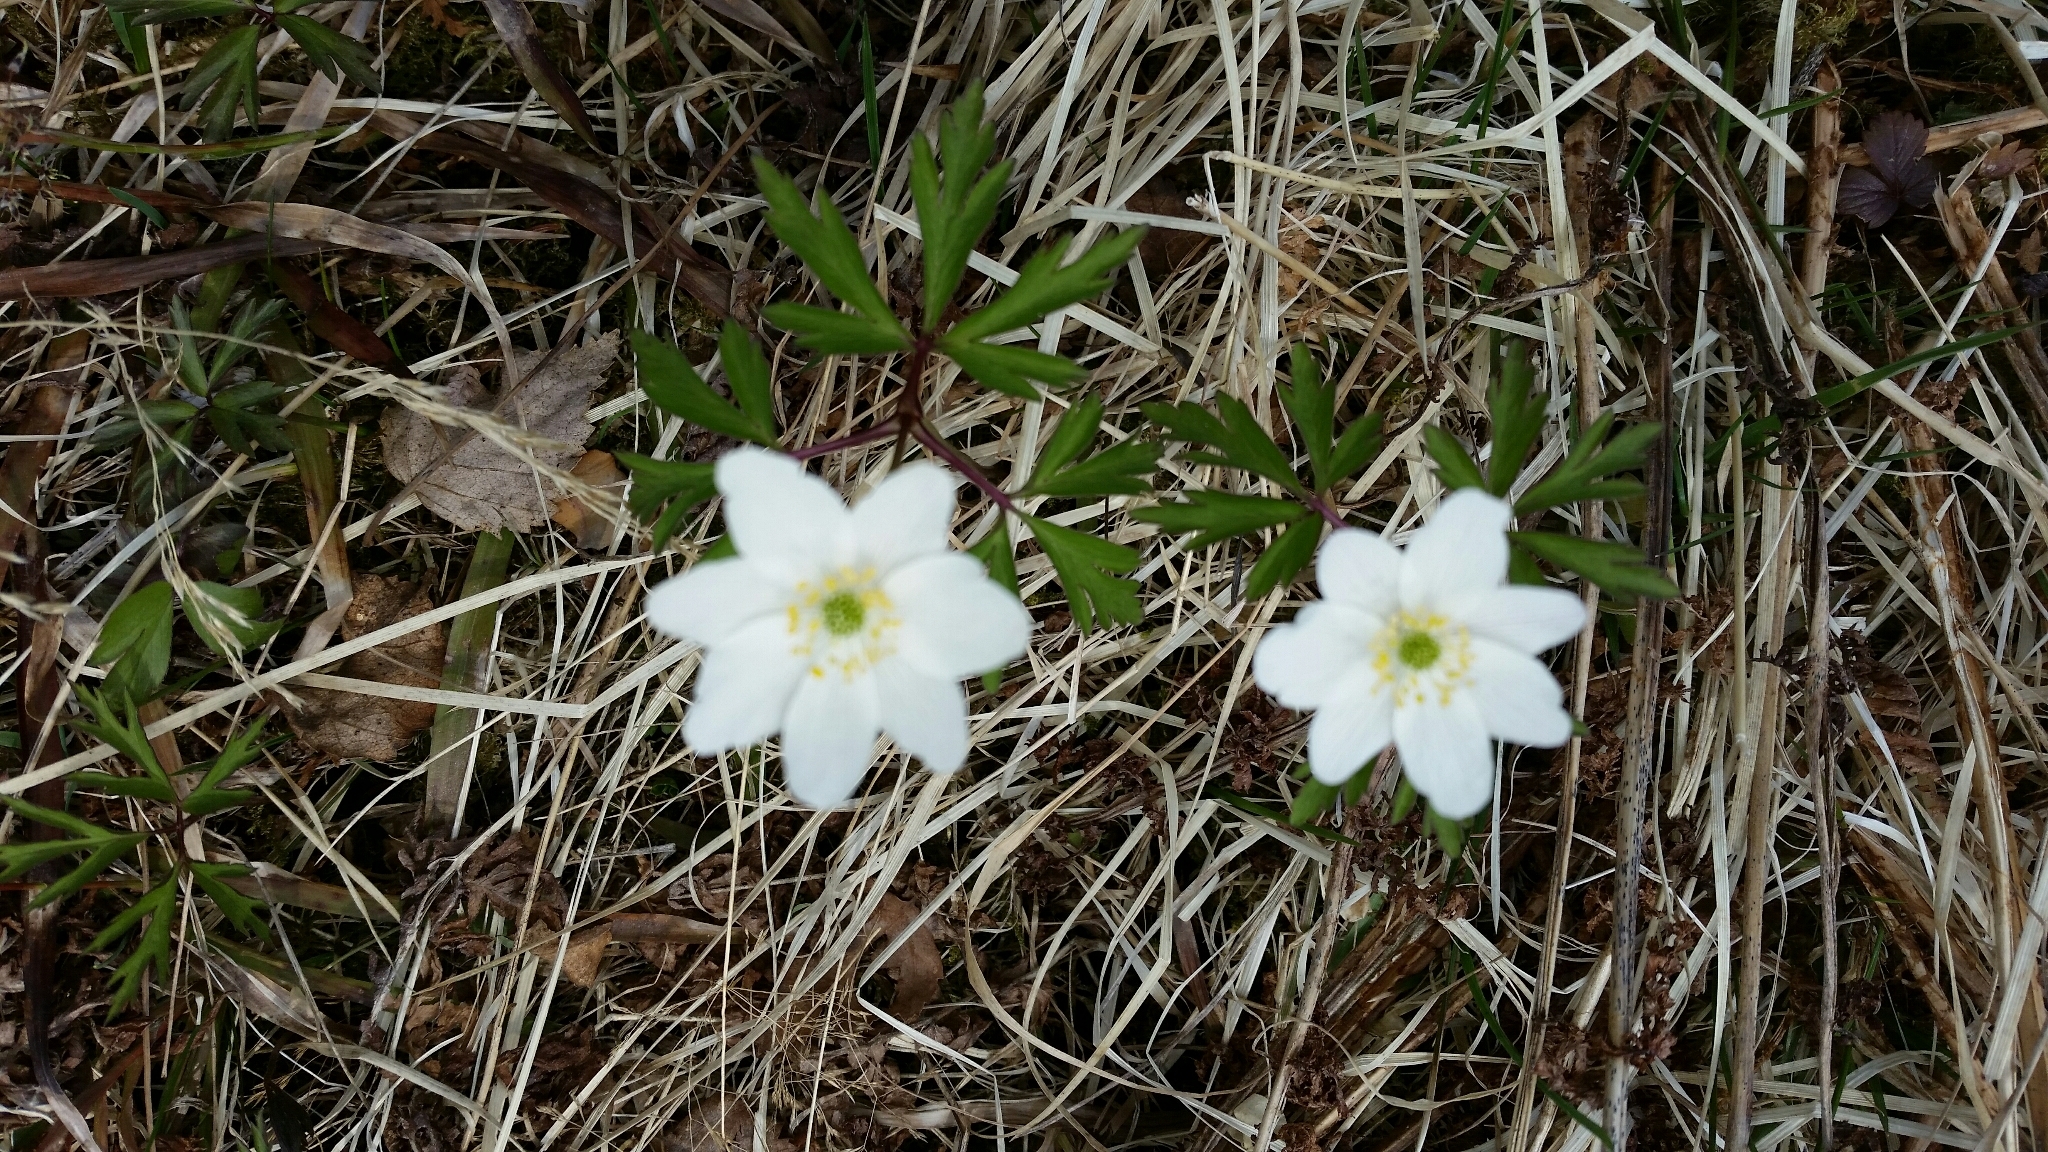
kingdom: Plantae
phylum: Tracheophyta
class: Magnoliopsida
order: Ranunculales
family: Ranunculaceae
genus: Anemone
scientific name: Anemone nemorosa
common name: Wood anemone
